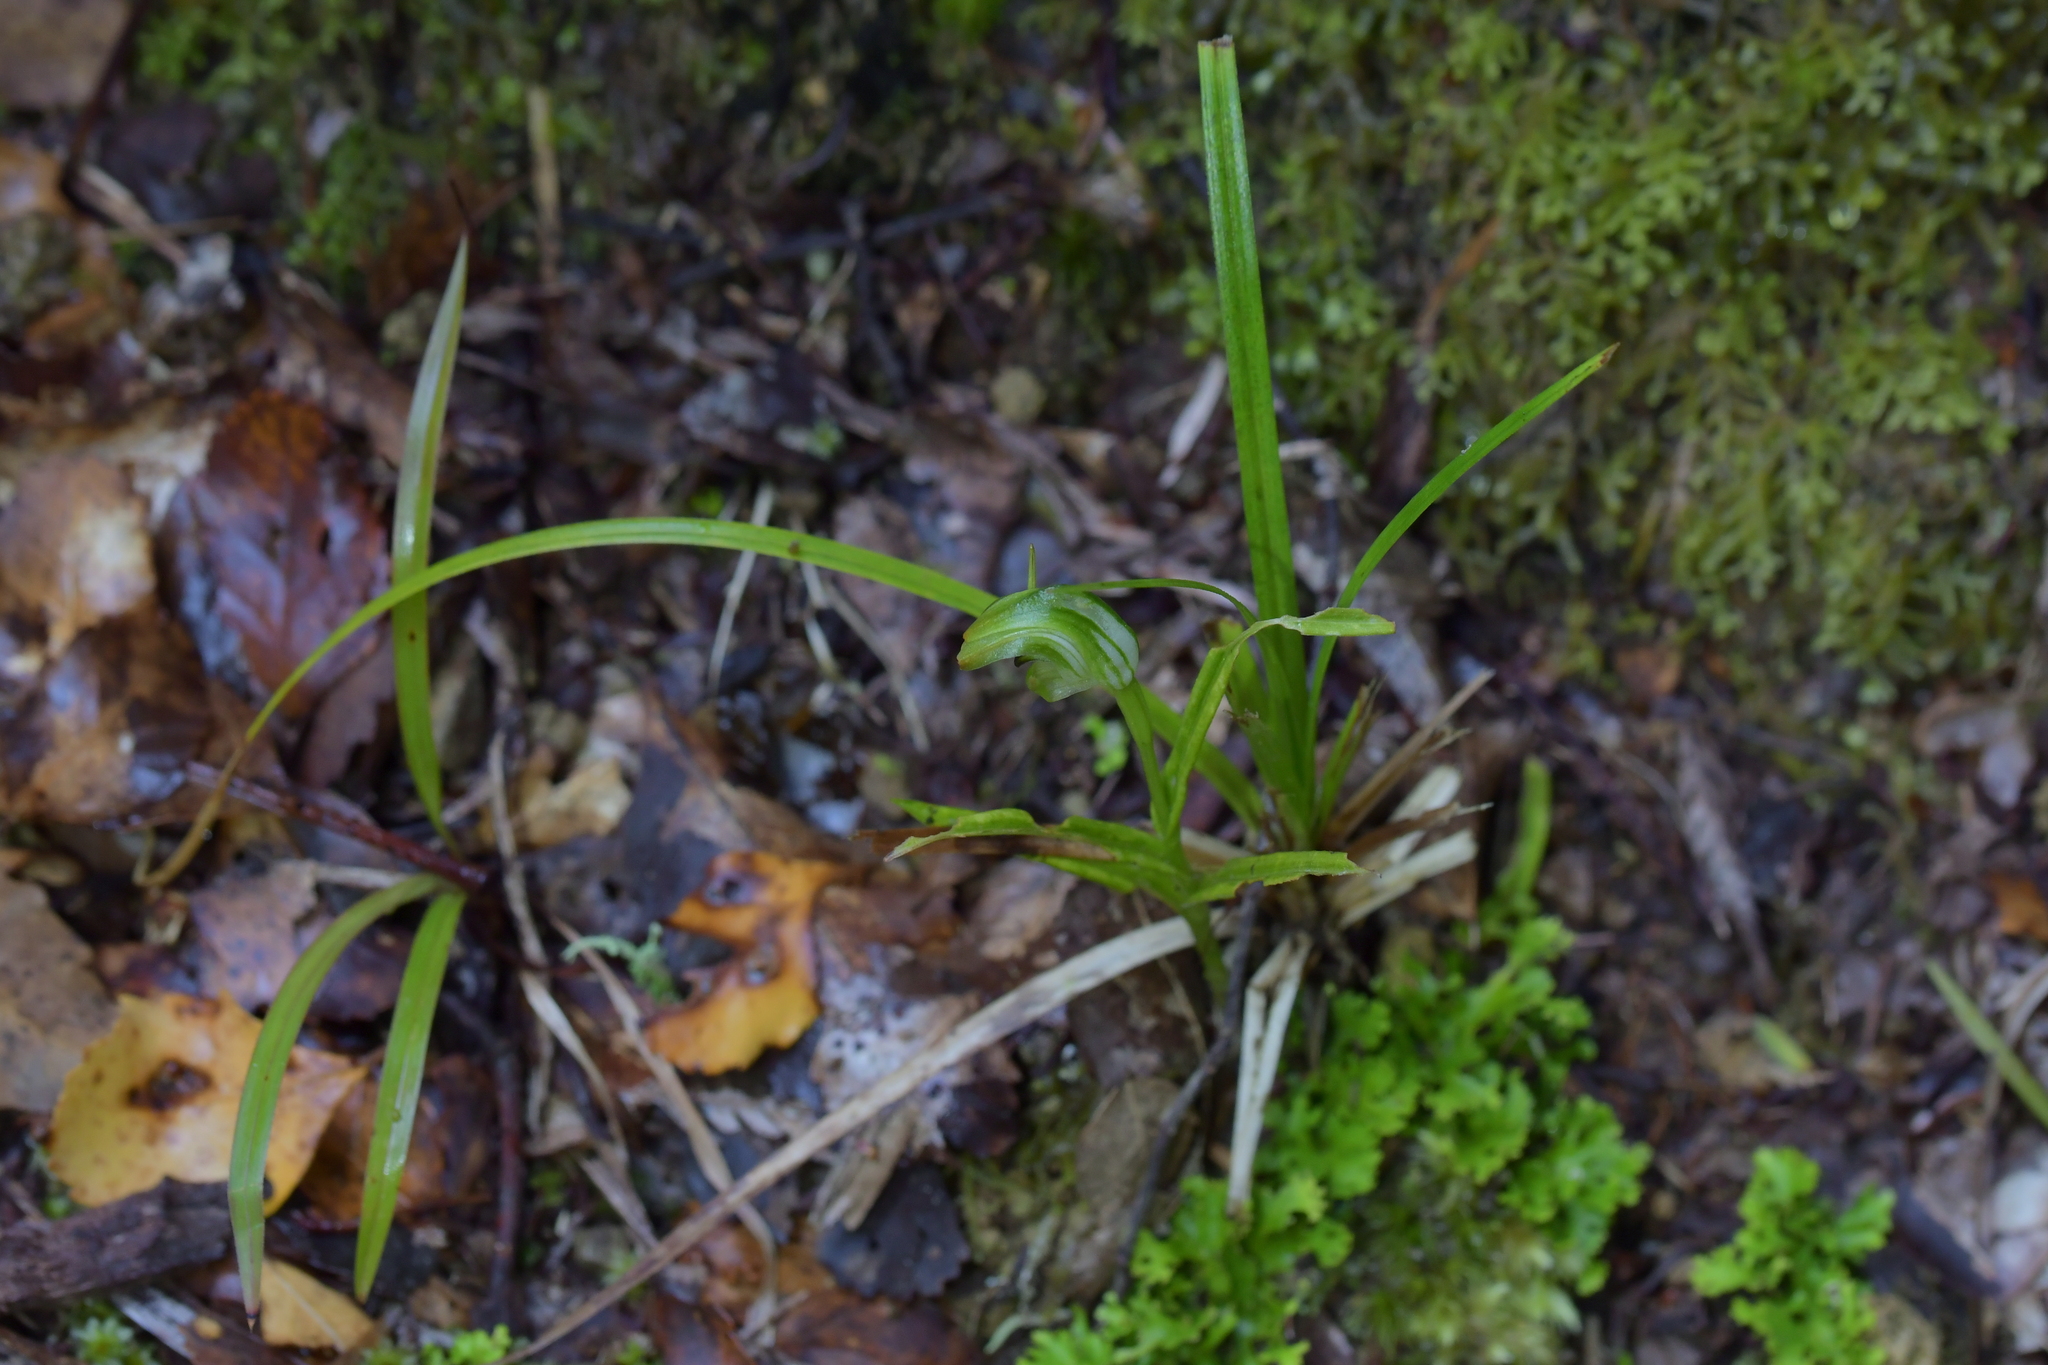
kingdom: Plantae
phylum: Tracheophyta
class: Liliopsida
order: Asparagales
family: Orchidaceae
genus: Pterostylis
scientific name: Pterostylis graminea
